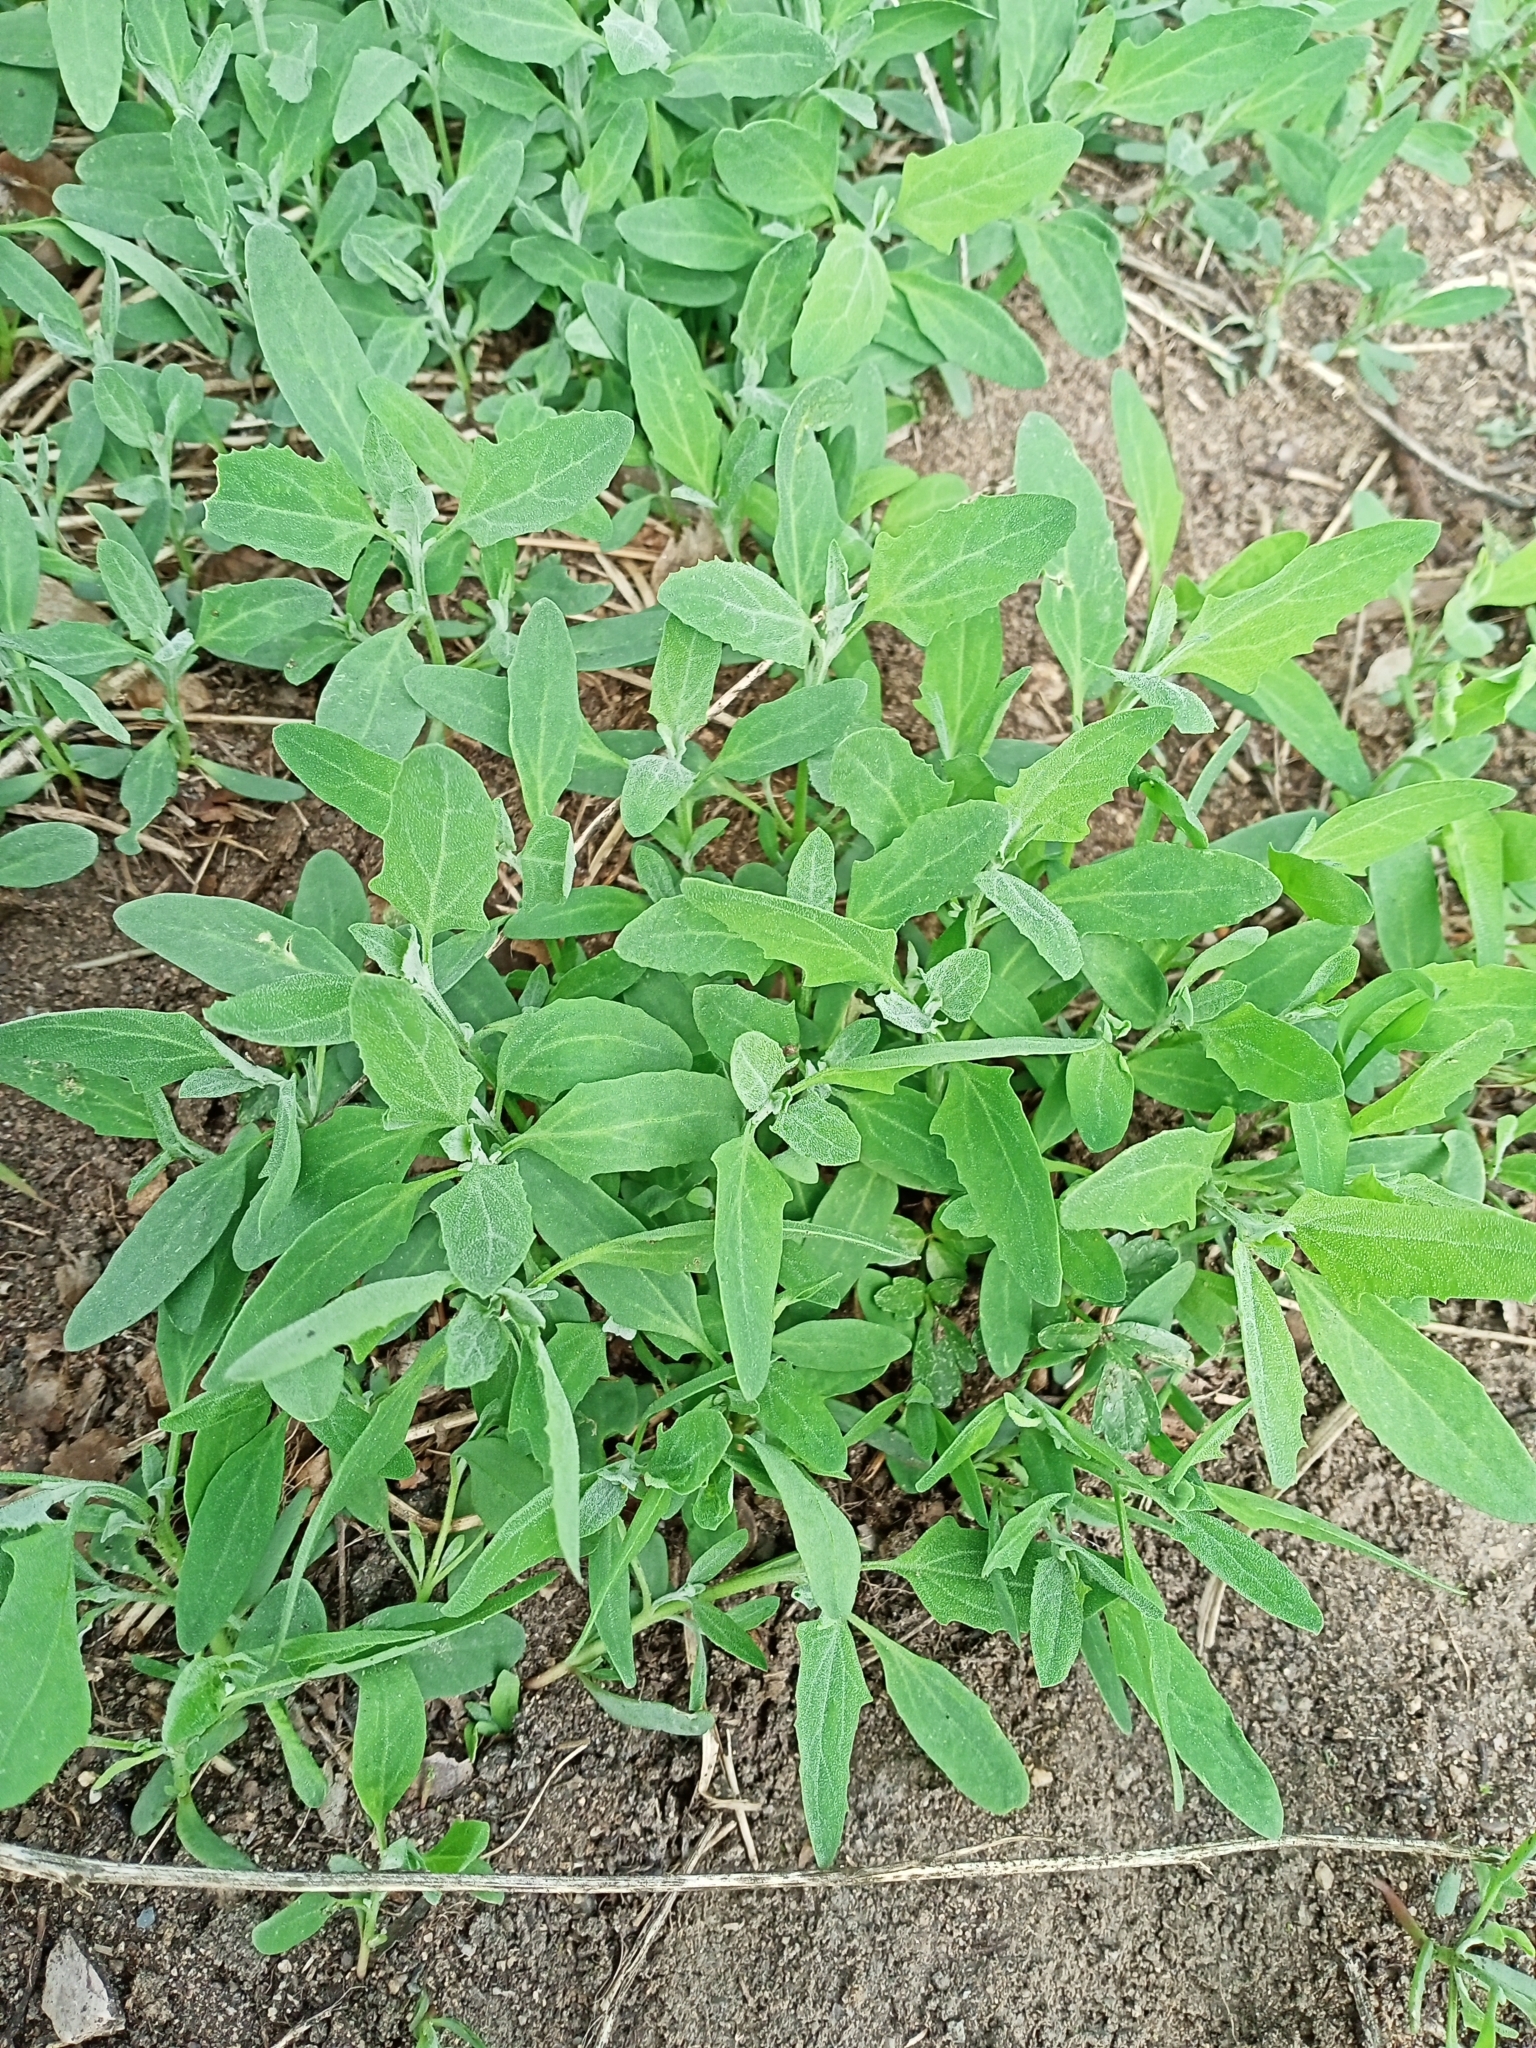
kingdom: Plantae
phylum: Tracheophyta
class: Magnoliopsida
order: Caryophyllales
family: Amaranthaceae
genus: Atriplex
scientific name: Atriplex patula
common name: Common orache
